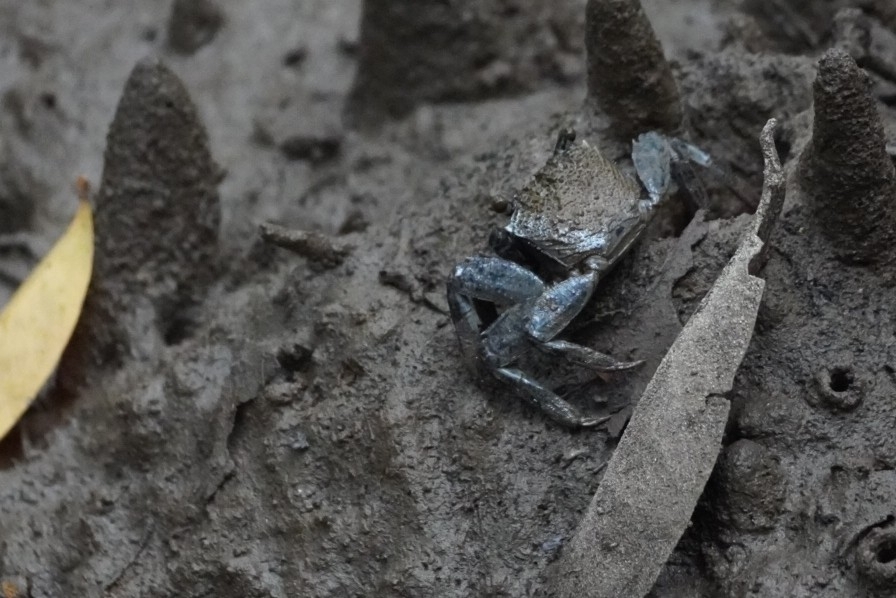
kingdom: Animalia
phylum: Arthropoda
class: Malacostraca
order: Decapoda
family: Sesarmidae
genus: Episesarma
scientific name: Episesarma versicolor
